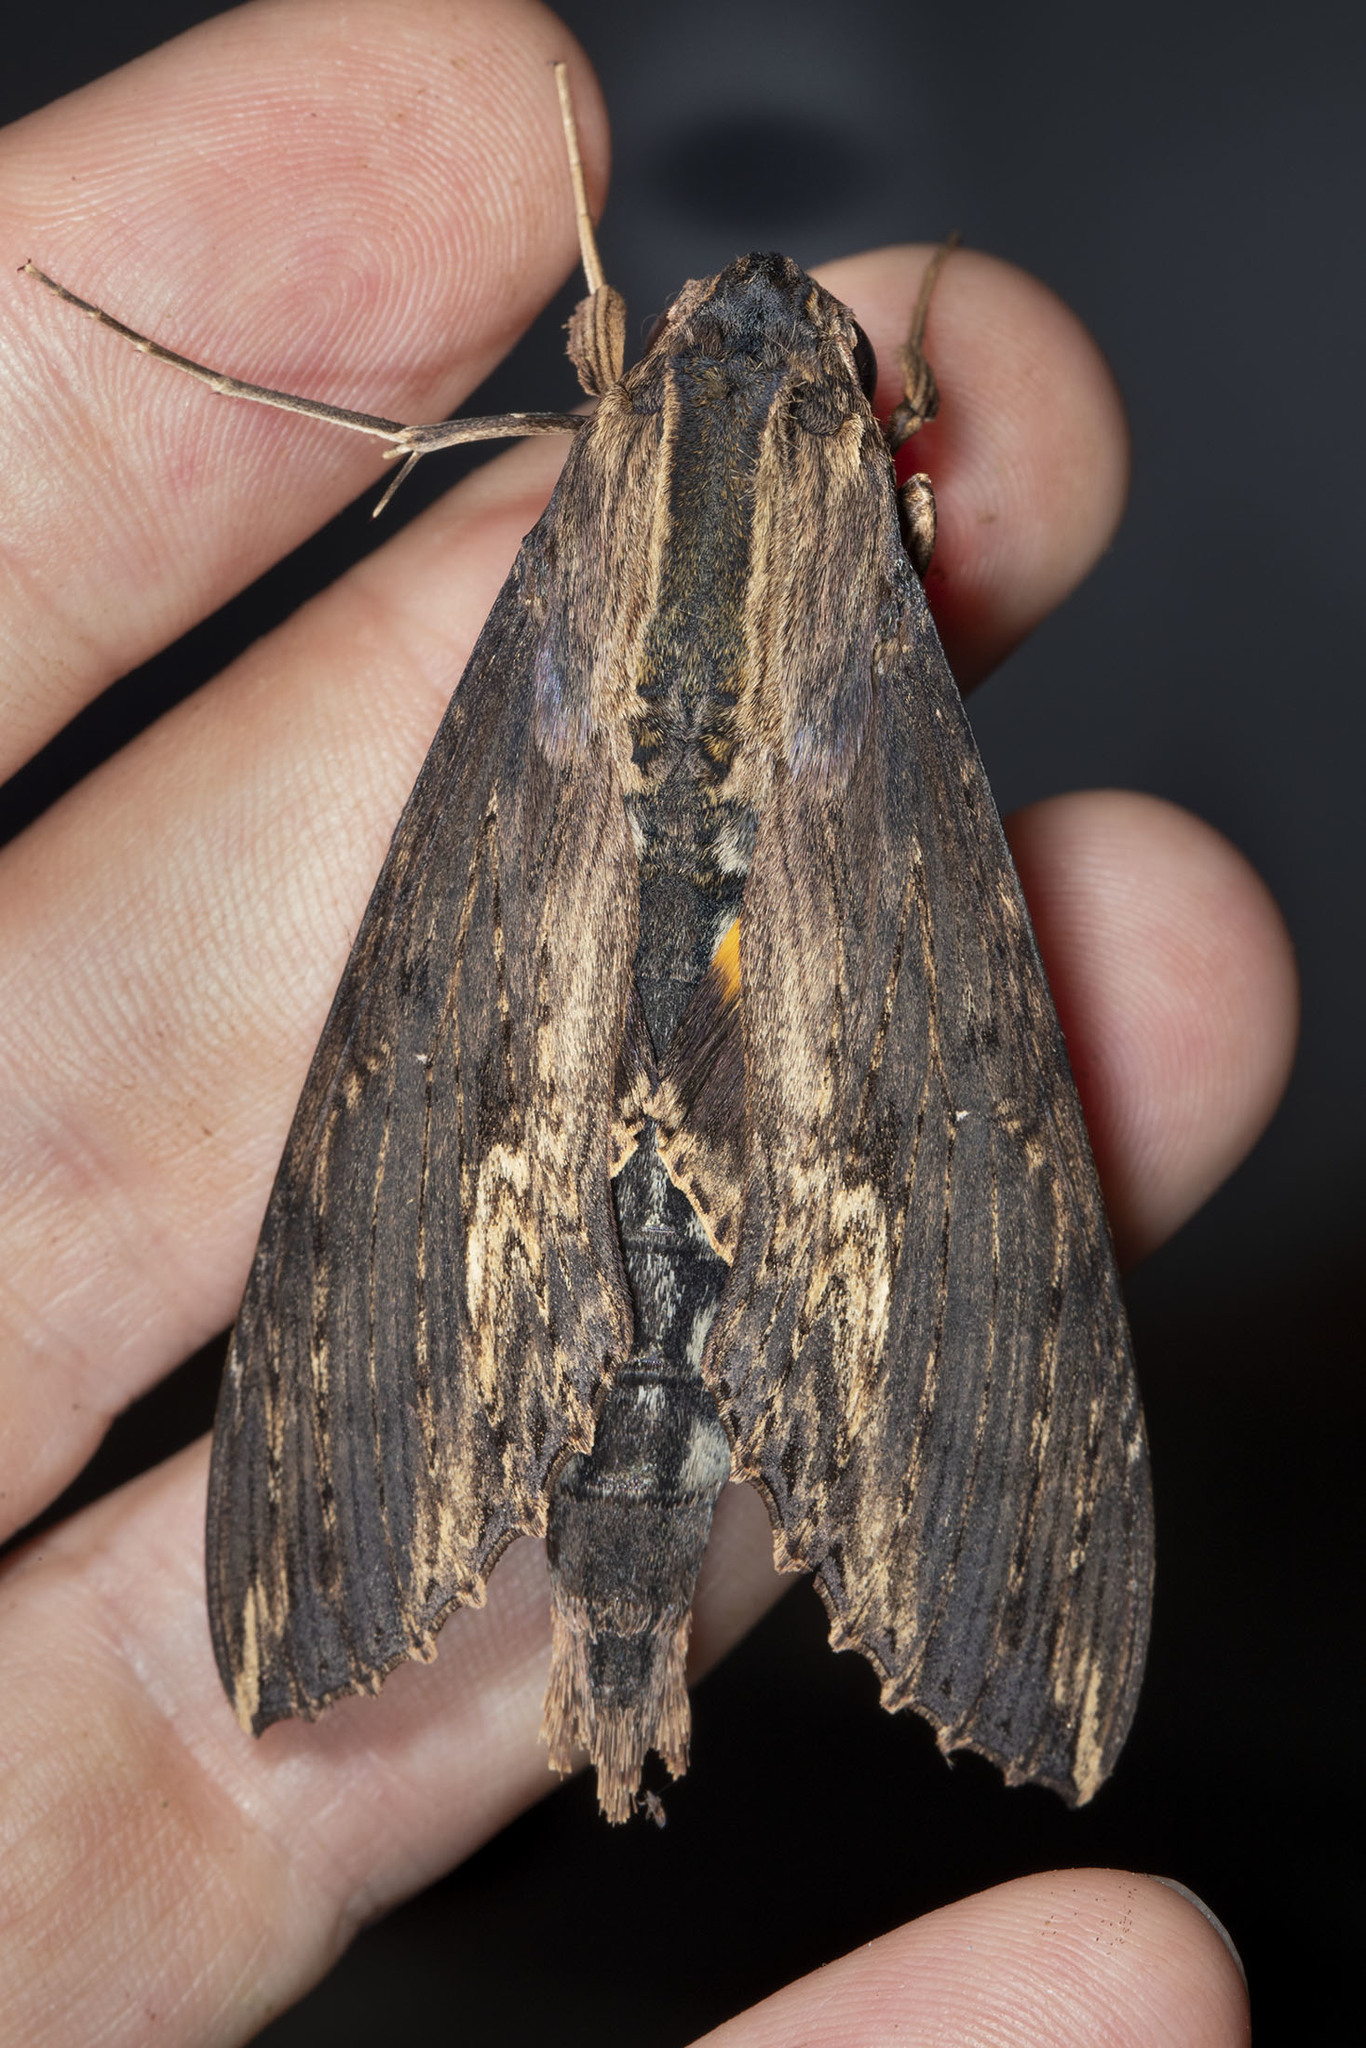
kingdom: Animalia
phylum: Arthropoda
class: Insecta
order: Lepidoptera
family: Sphingidae
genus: Erinnyis
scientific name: Erinnyis alope
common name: Alope sphinx
